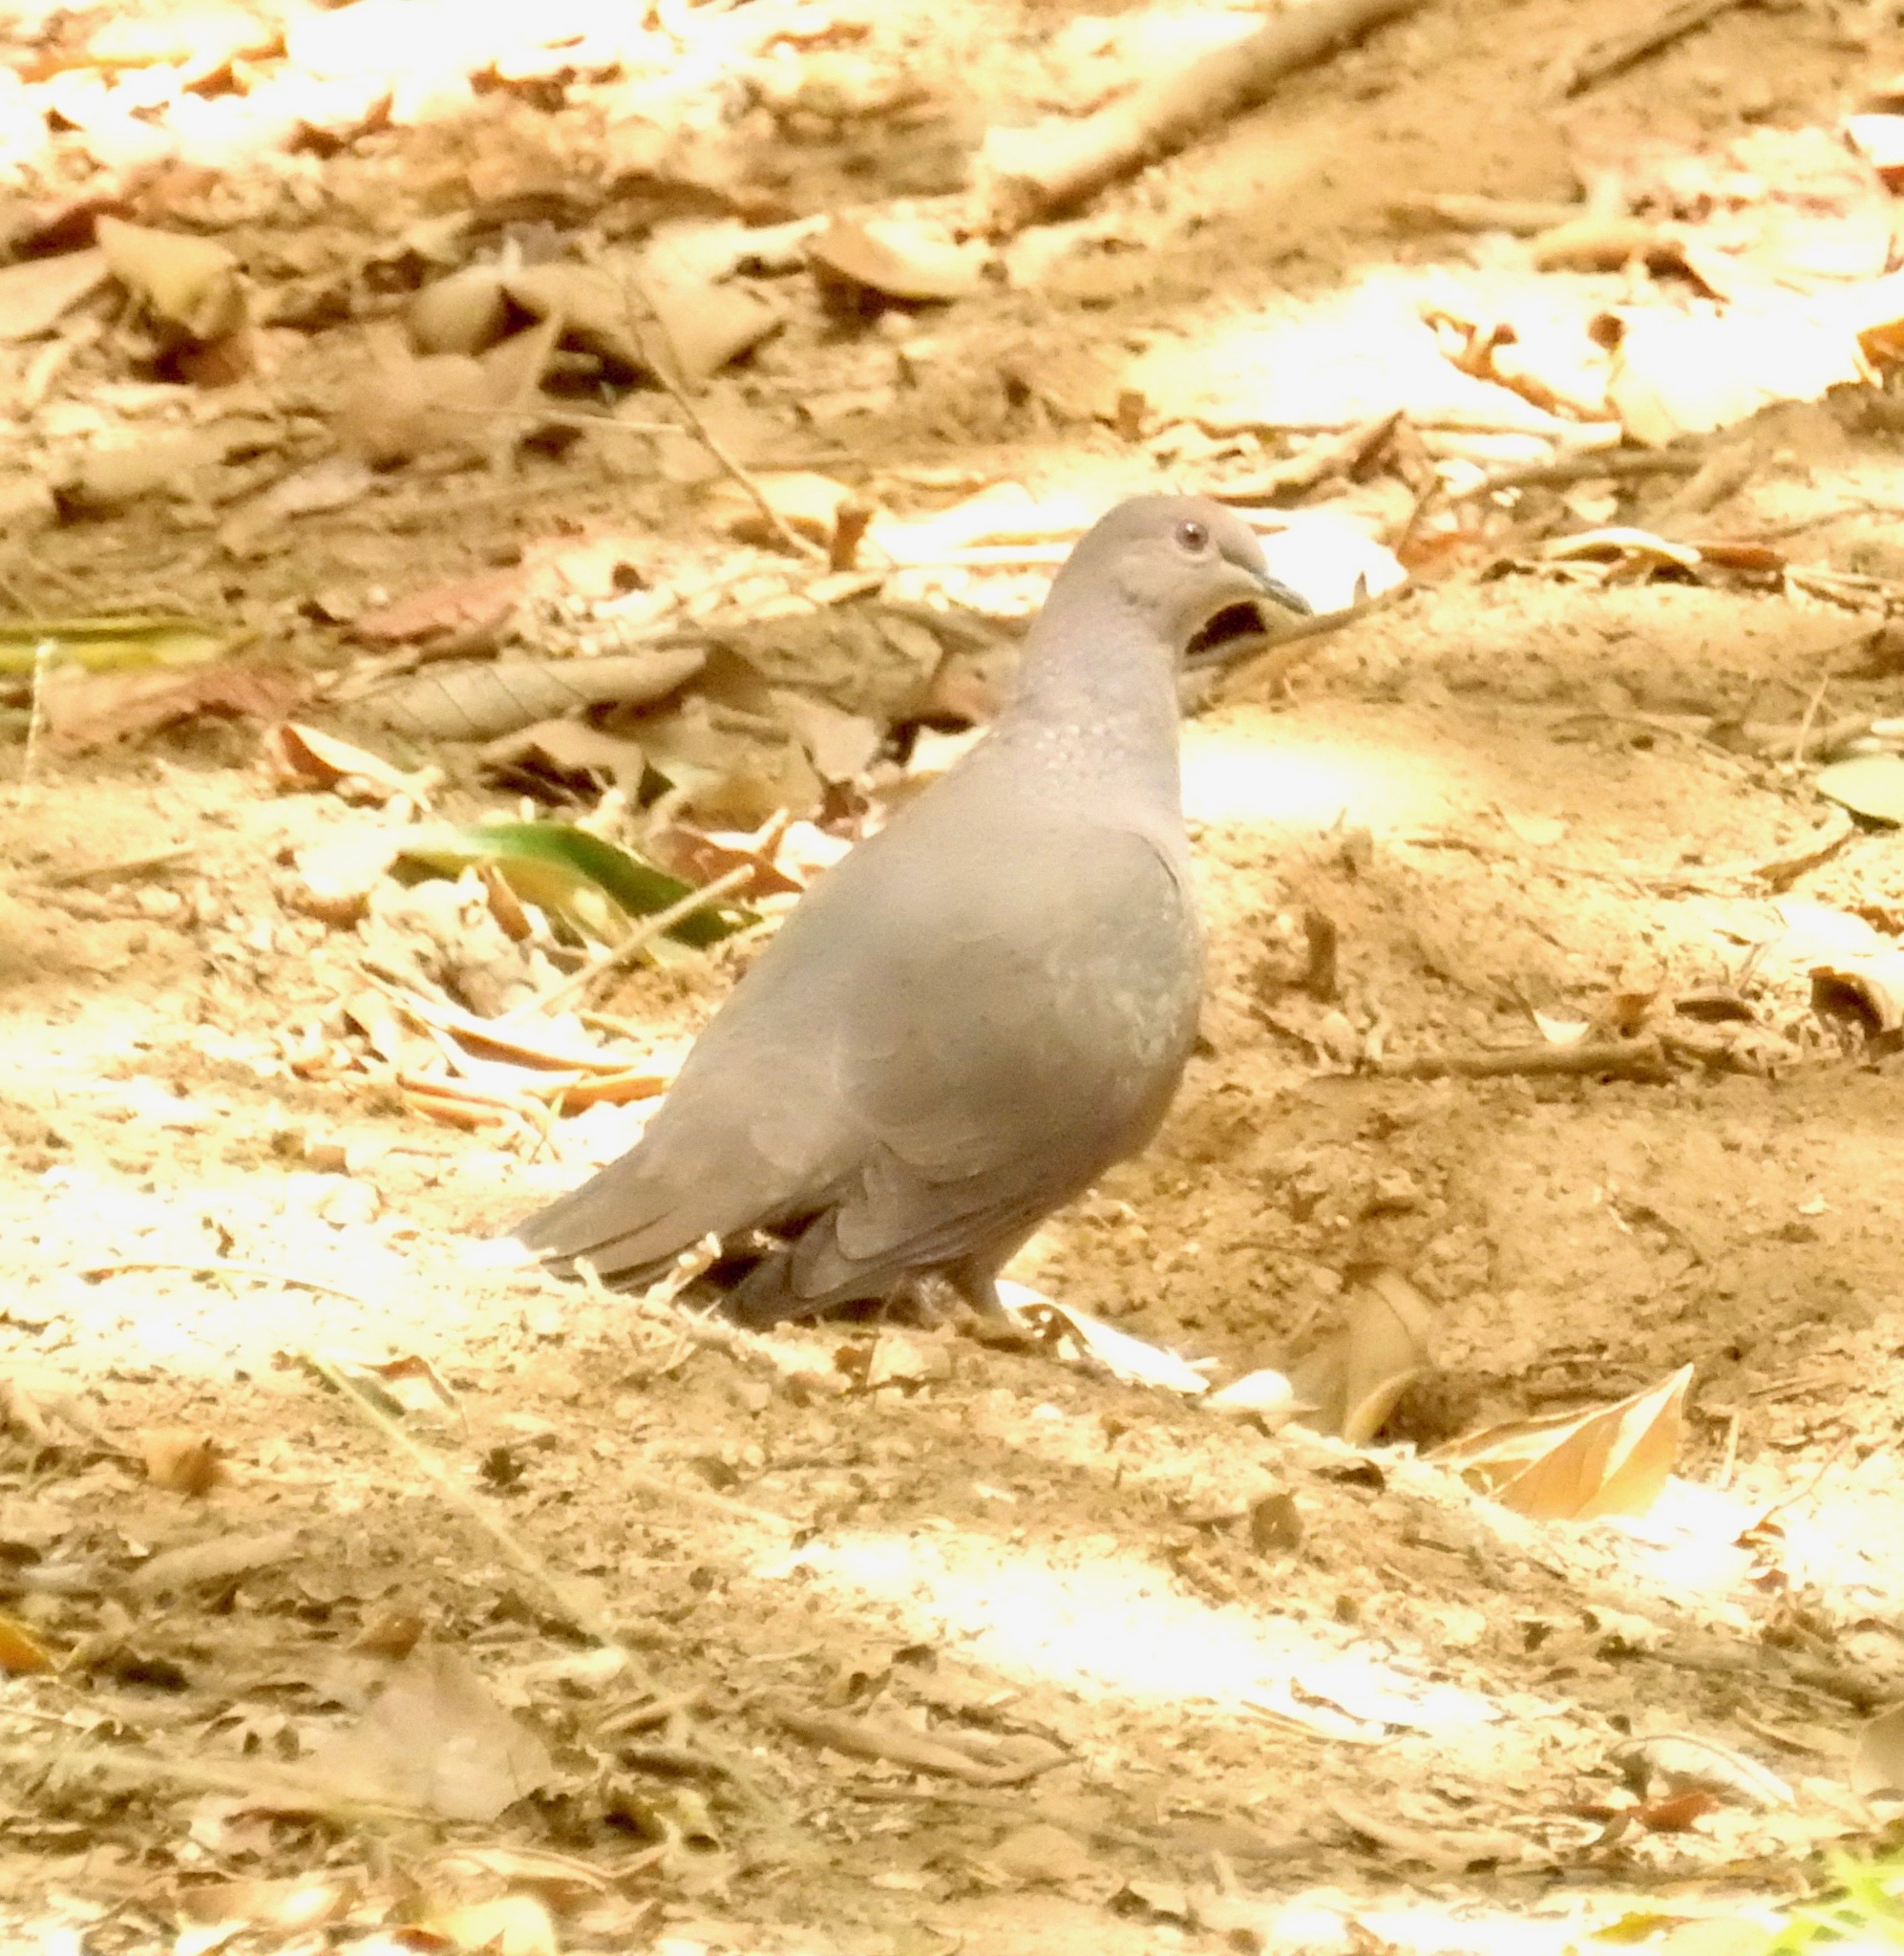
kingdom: Animalia
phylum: Chordata
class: Aves
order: Columbiformes
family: Columbidae
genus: Patagioenas
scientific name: Patagioenas plumbea
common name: Plumbeous pigeon
